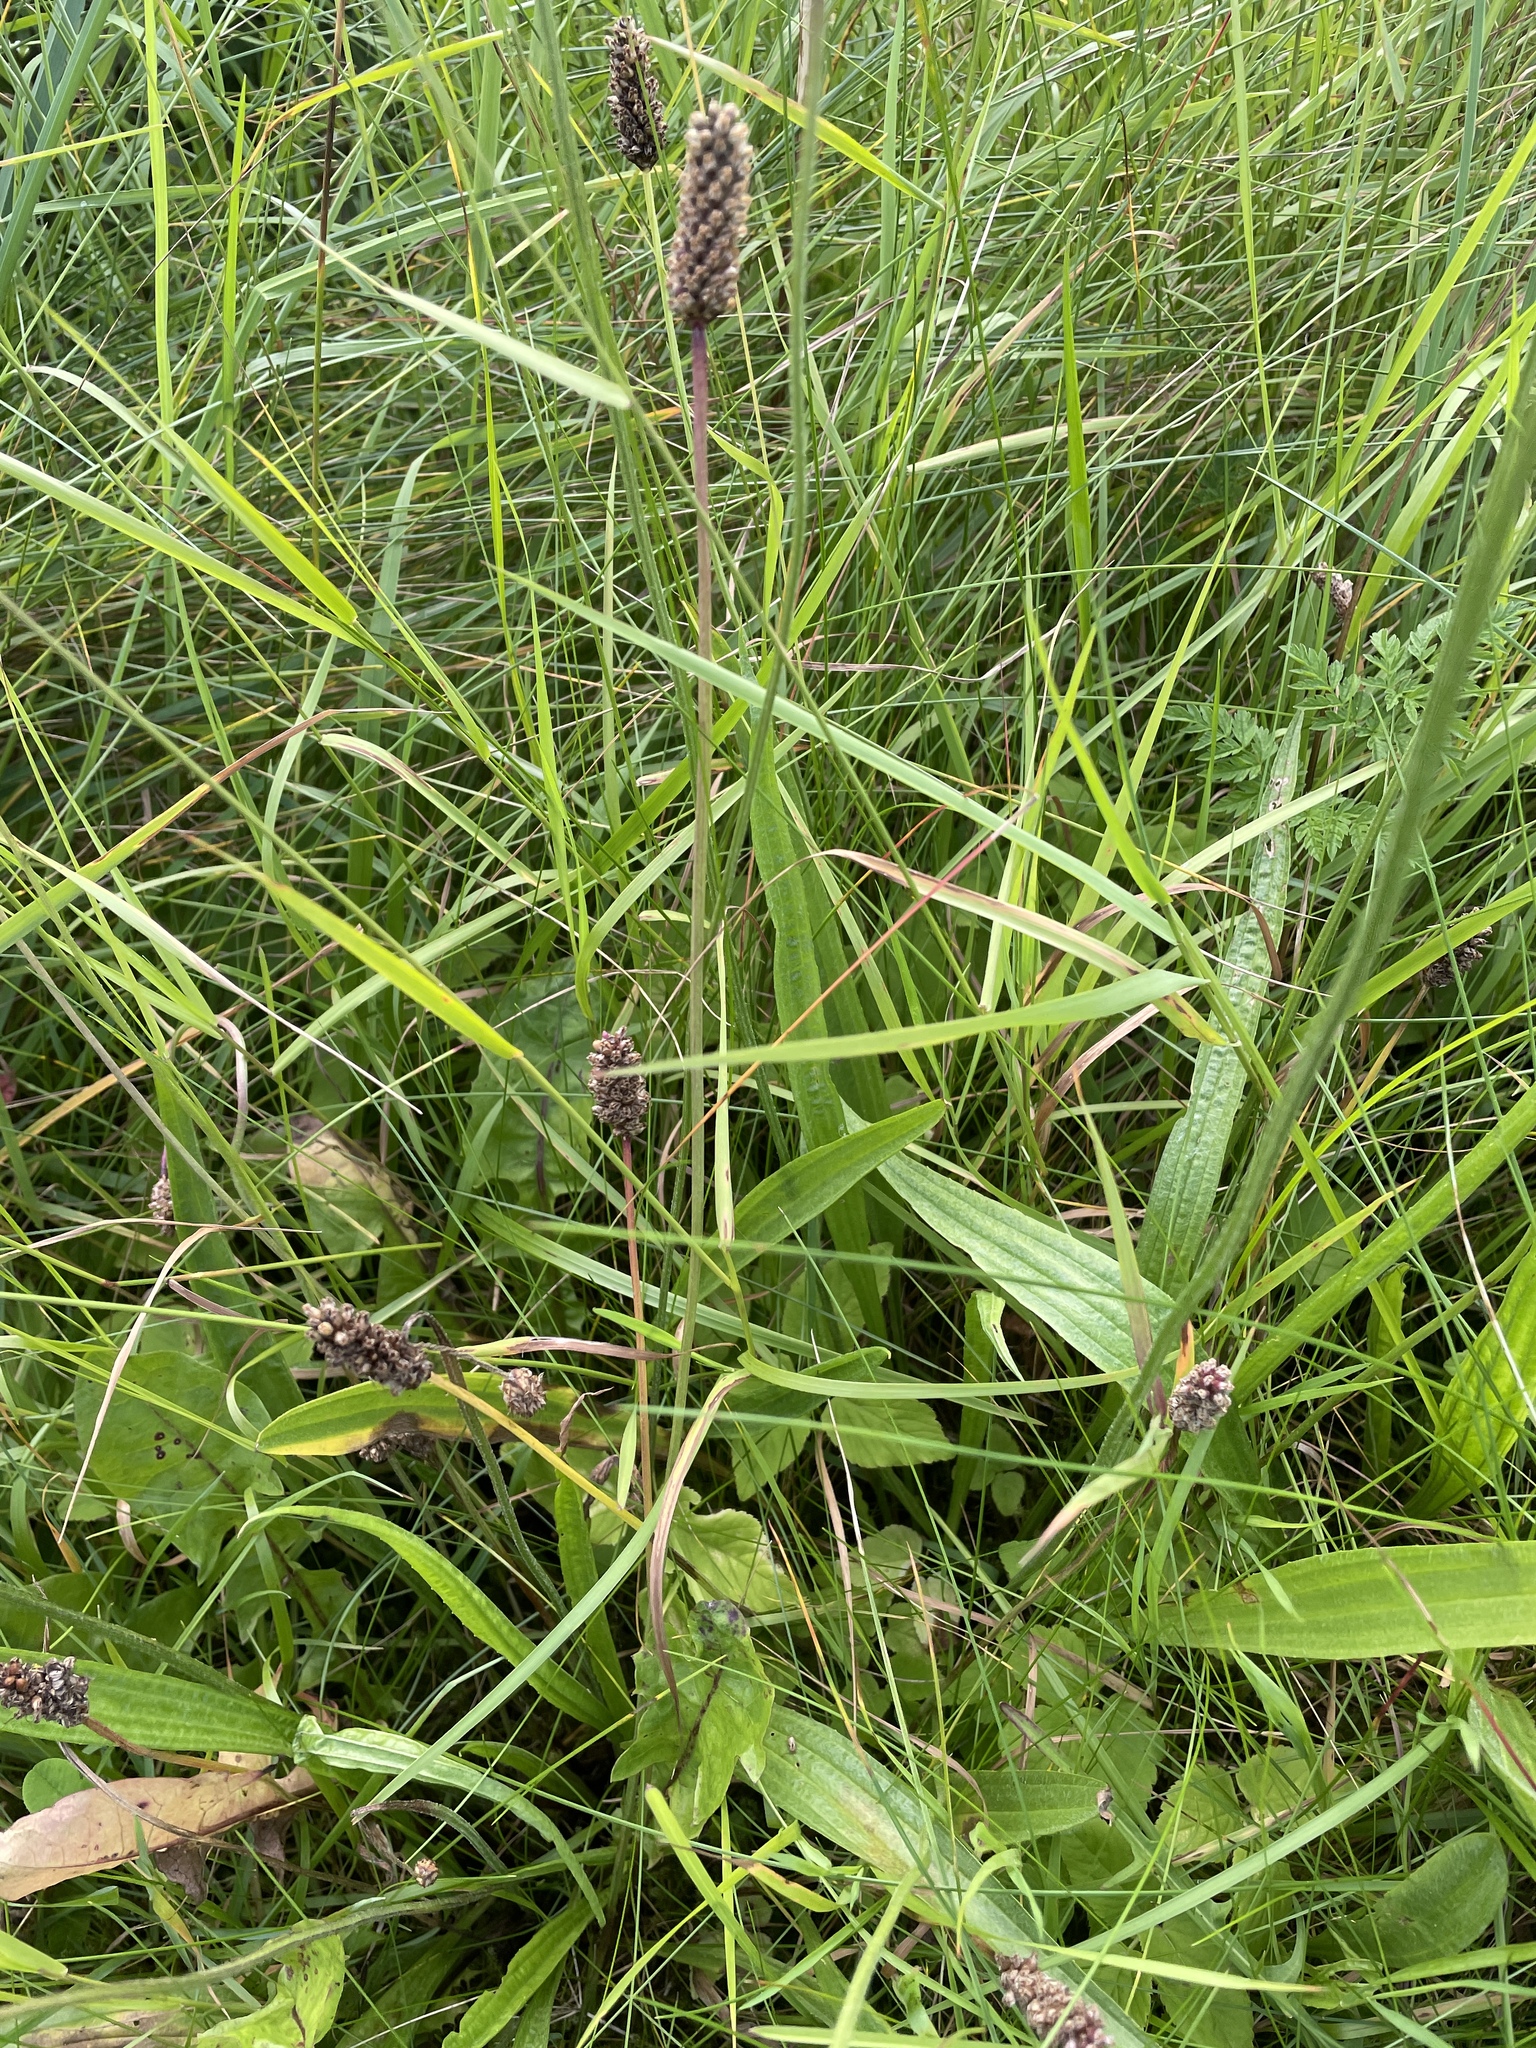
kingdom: Plantae
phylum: Tracheophyta
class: Magnoliopsida
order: Lamiales
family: Plantaginaceae
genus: Plantago
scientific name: Plantago lanceolata
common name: Ribwort plantain
